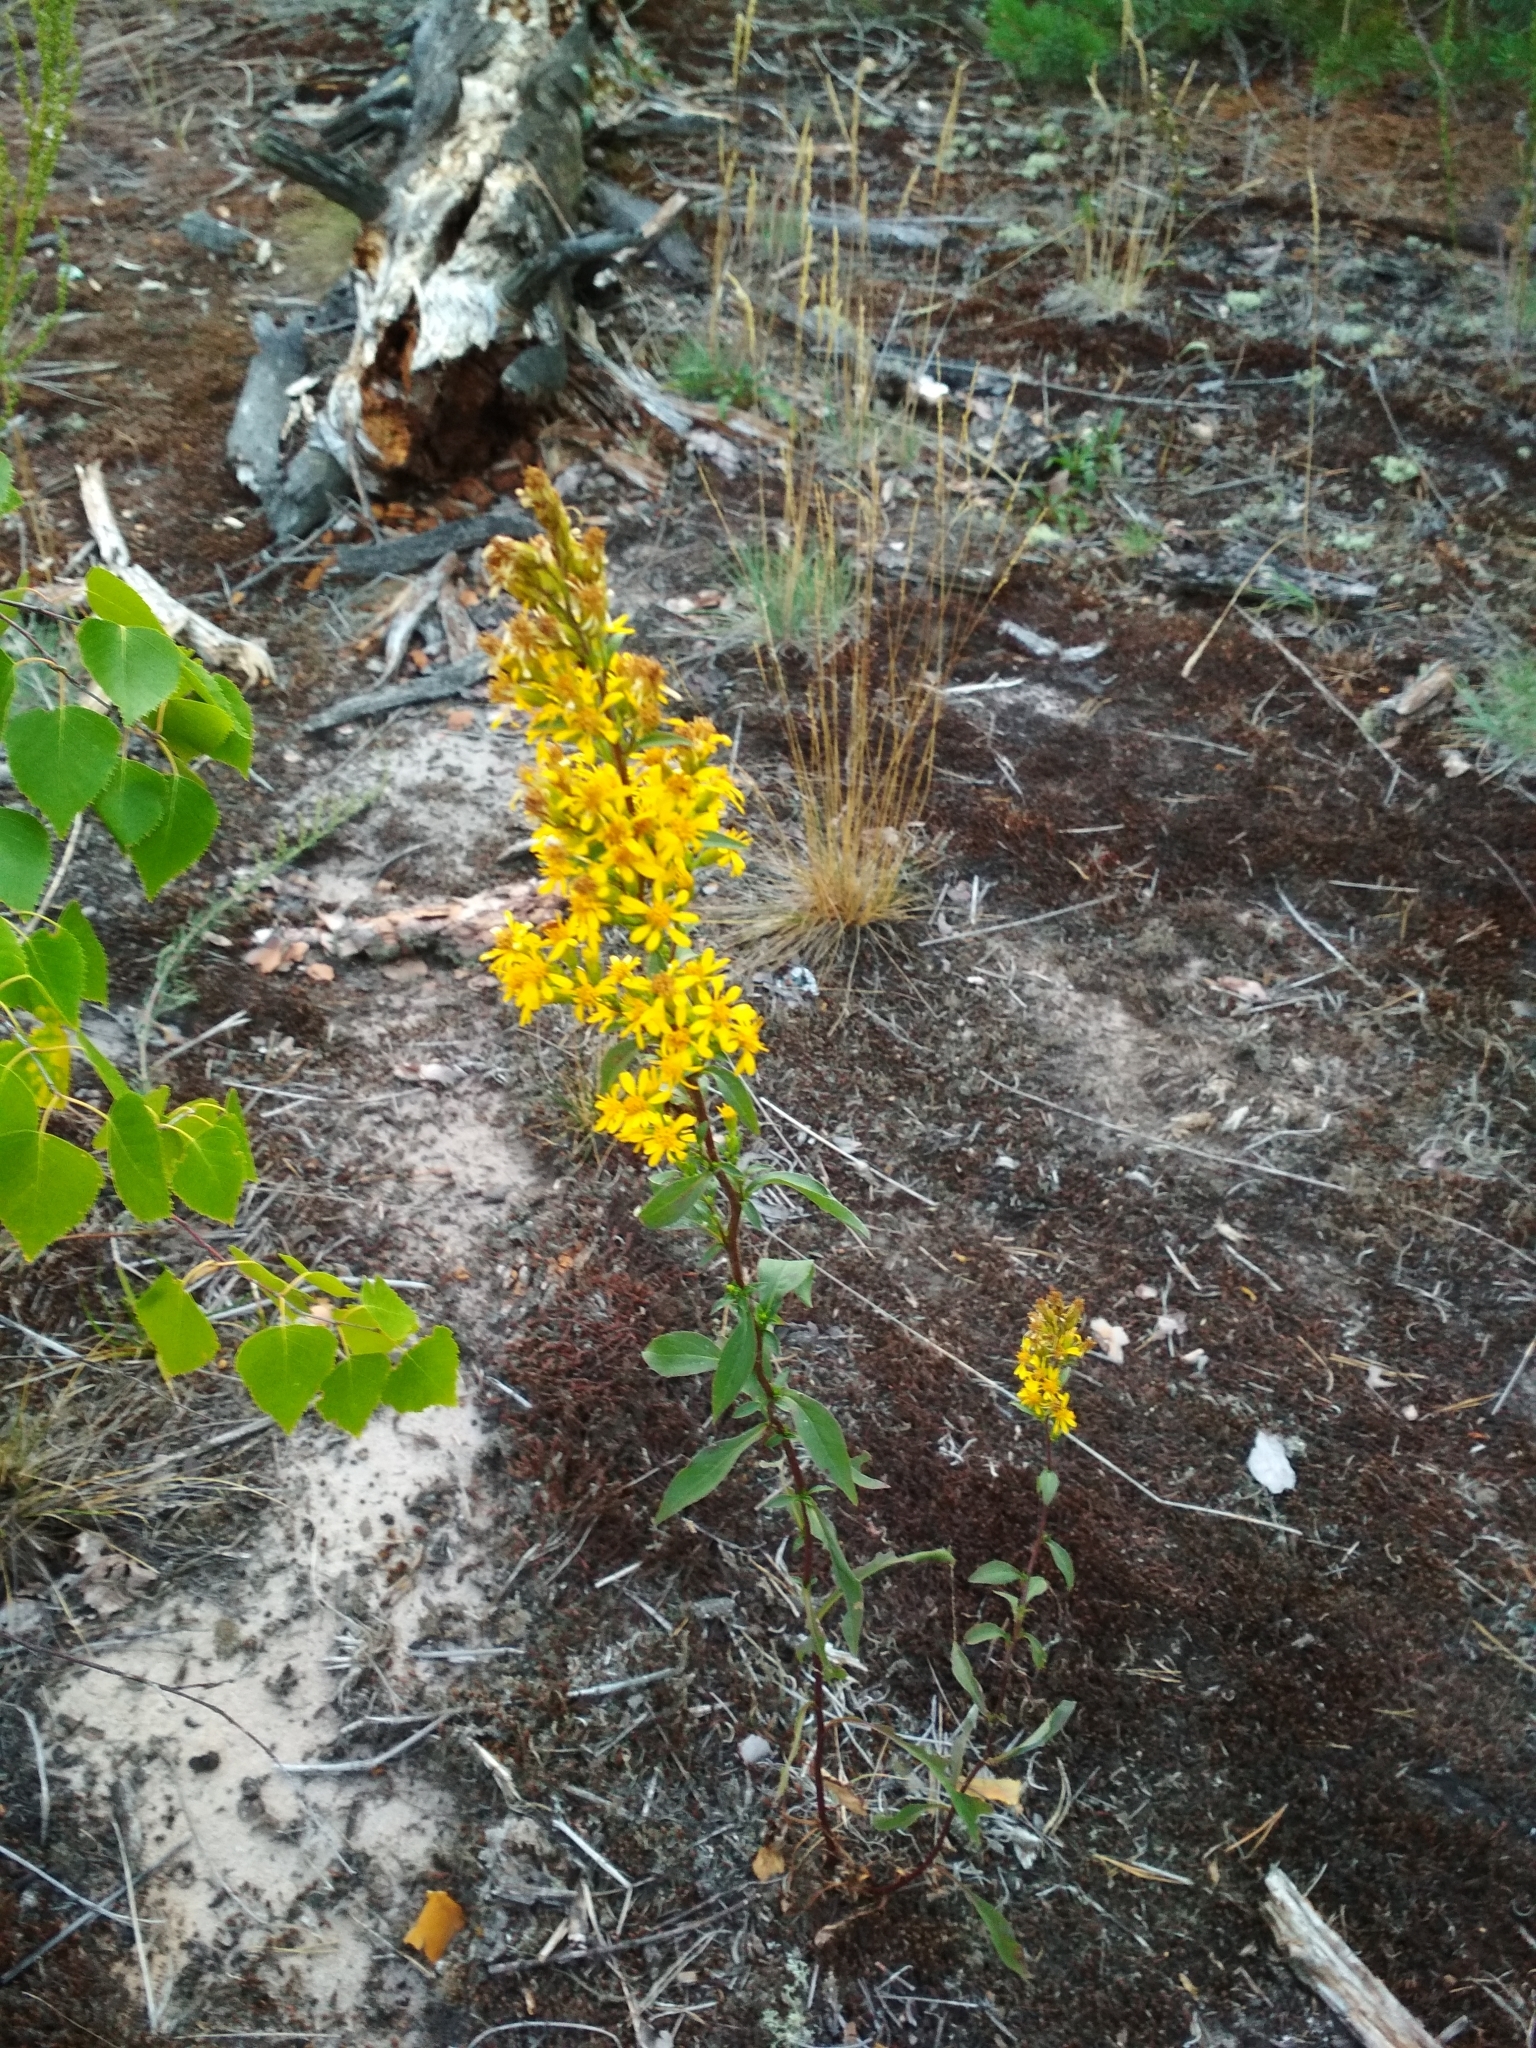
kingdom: Plantae
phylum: Tracheophyta
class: Magnoliopsida
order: Asterales
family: Asteraceae
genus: Solidago
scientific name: Solidago virgaurea
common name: Goldenrod
